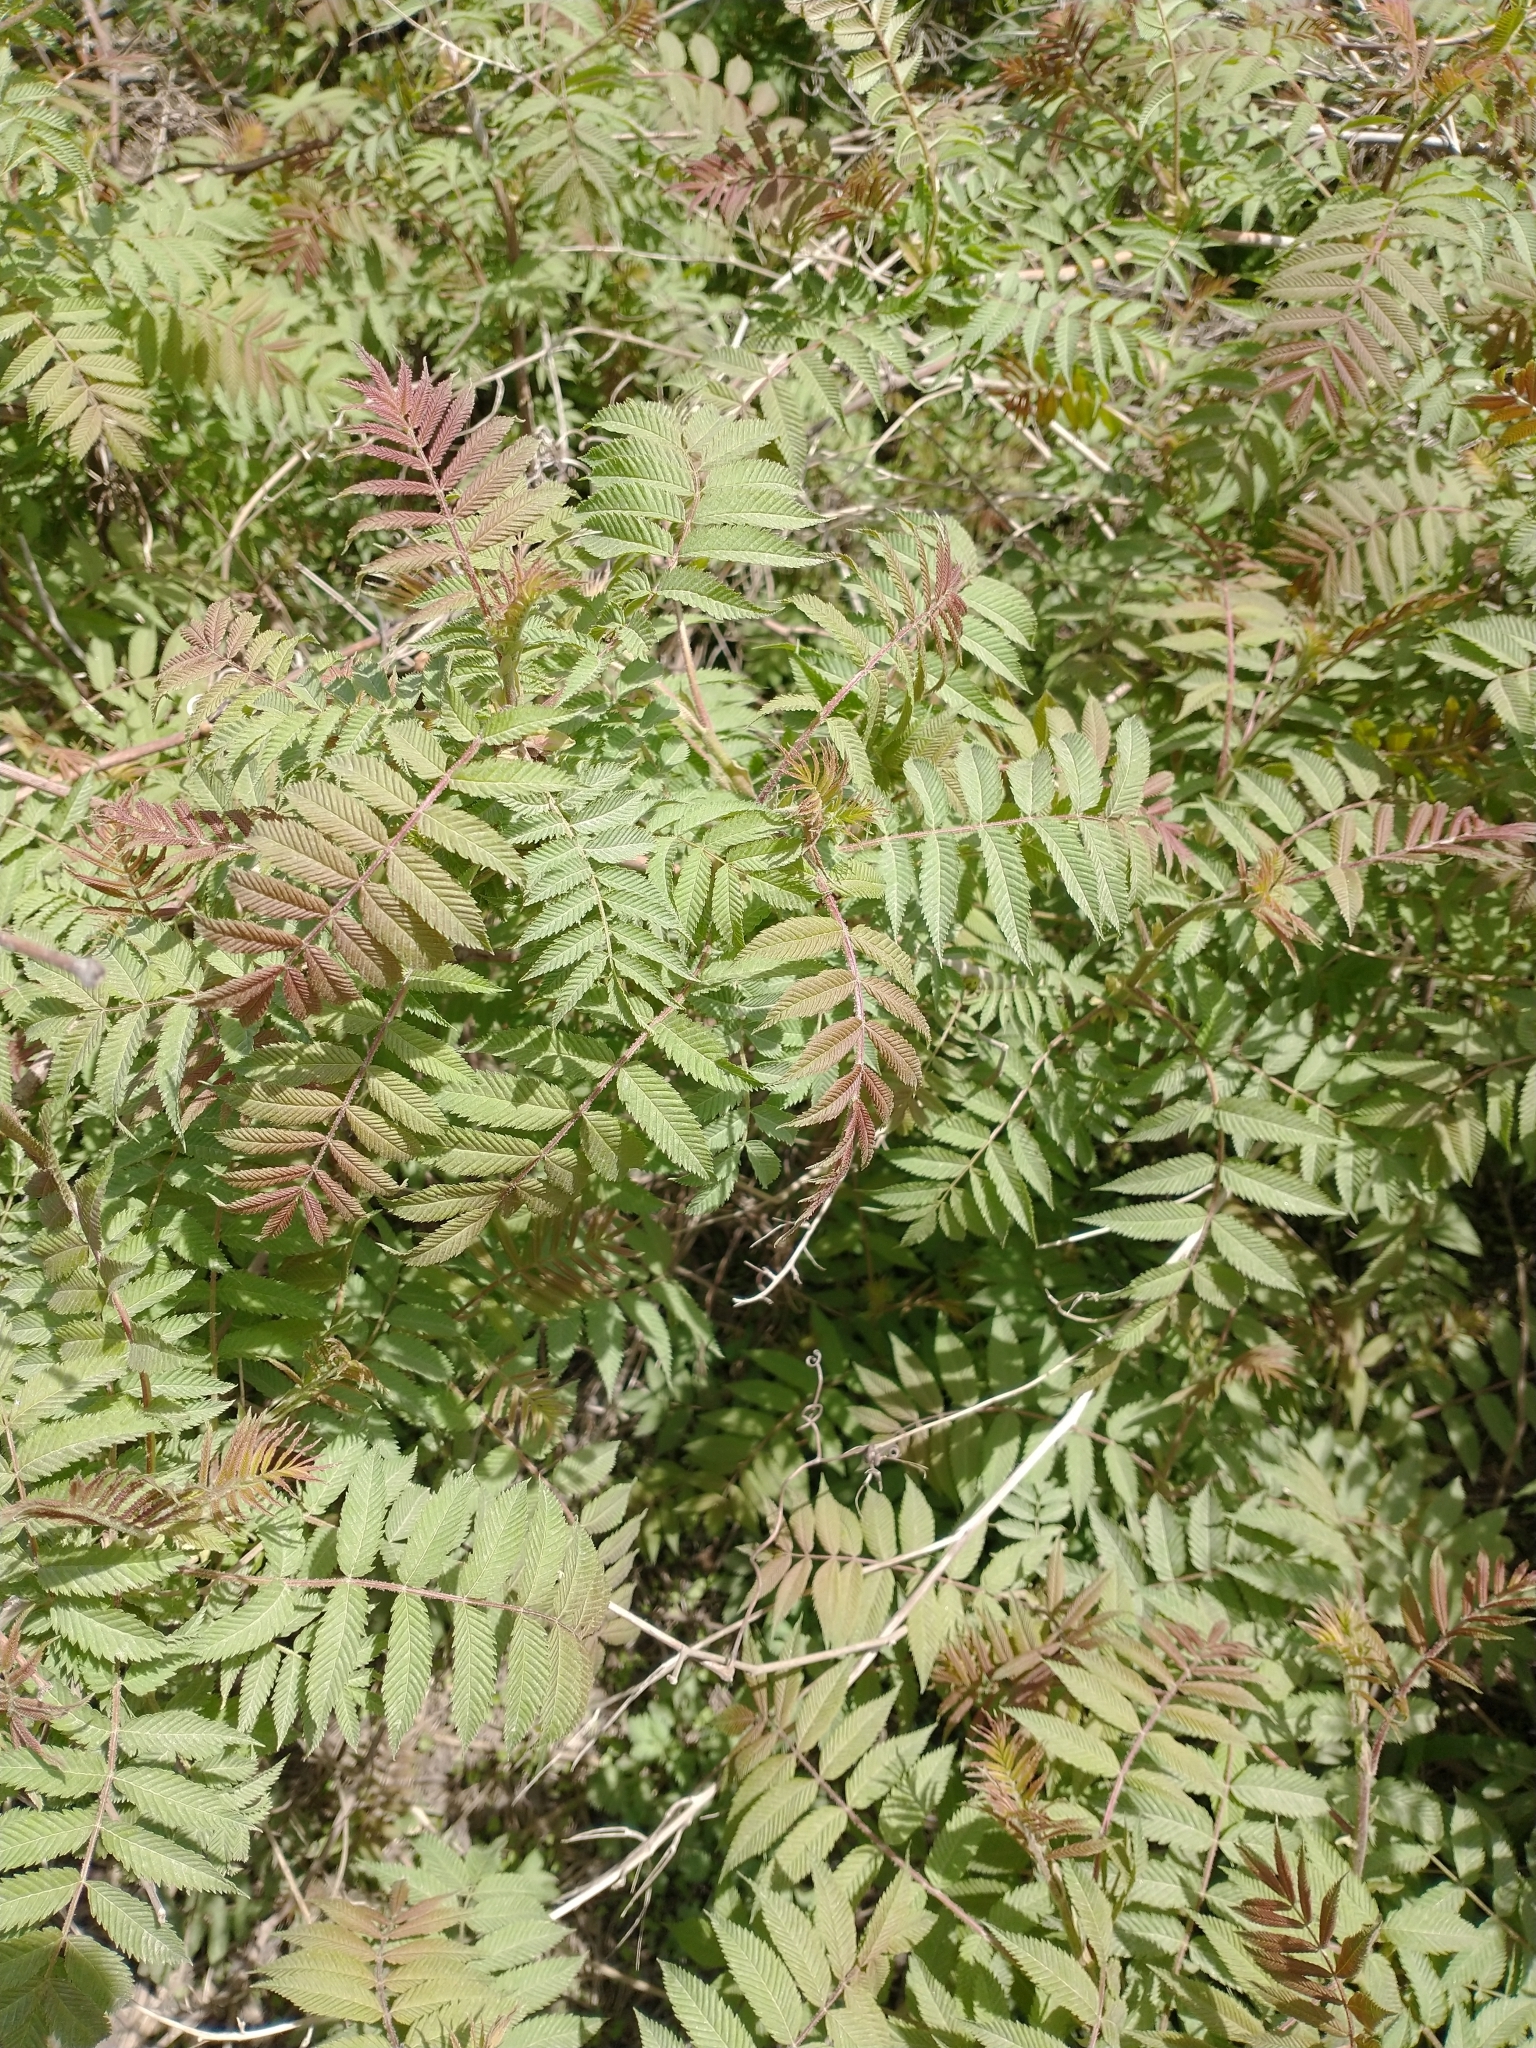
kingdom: Plantae
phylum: Tracheophyta
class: Magnoliopsida
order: Rosales
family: Rosaceae
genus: Sorbaria
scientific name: Sorbaria sorbifolia
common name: False spiraea
